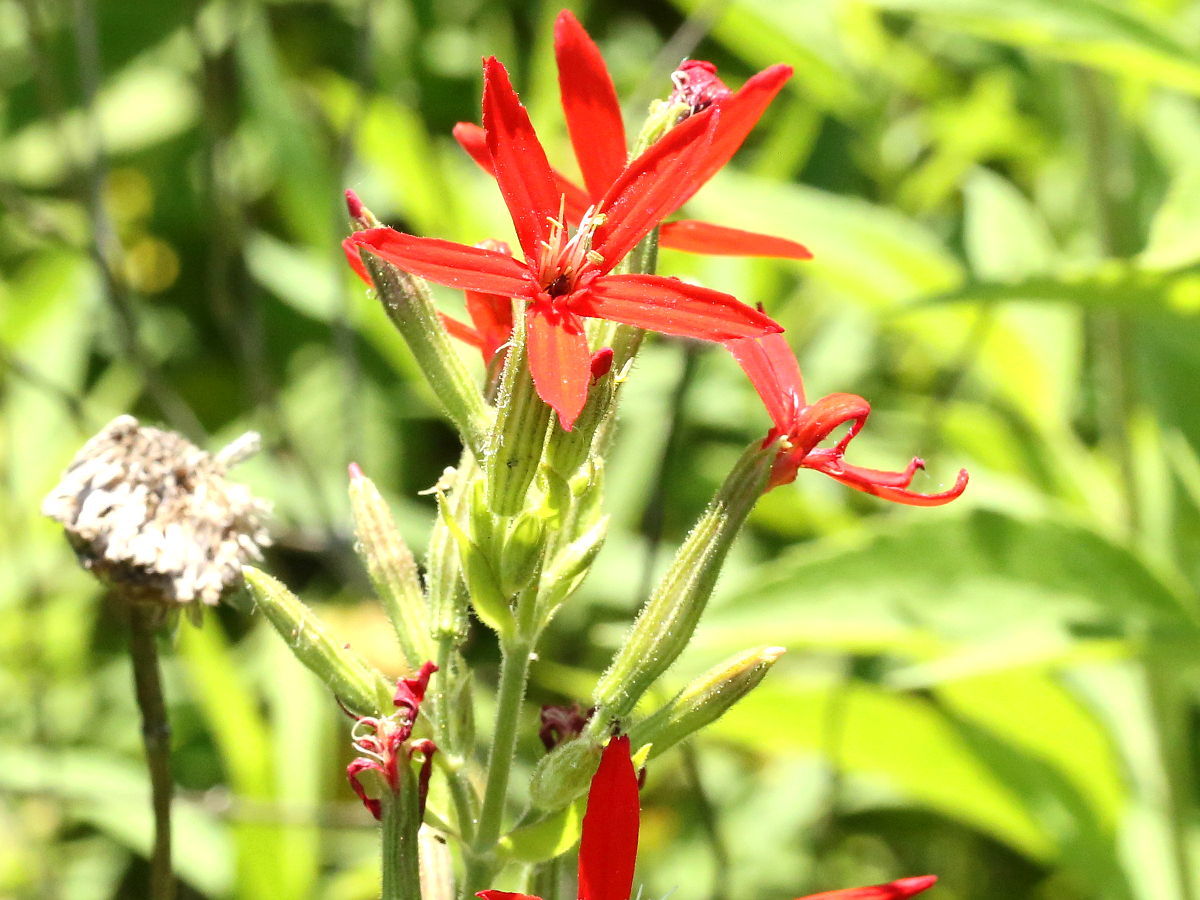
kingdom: Plantae
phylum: Tracheophyta
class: Magnoliopsida
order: Caryophyllales
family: Caryophyllaceae
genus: Silene
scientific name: Silene regia
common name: Royal catchfly
